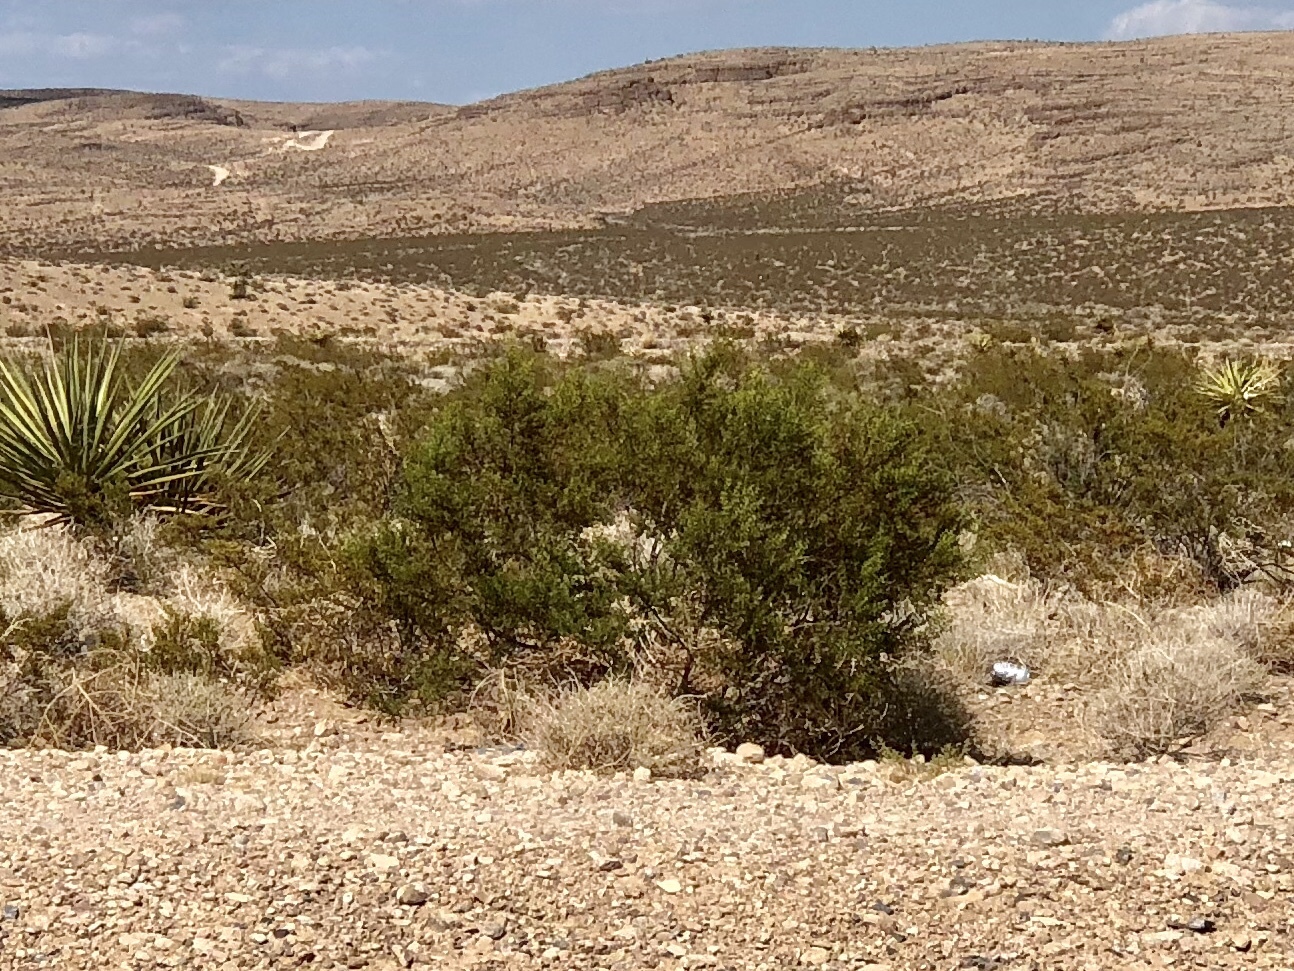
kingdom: Plantae
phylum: Tracheophyta
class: Magnoliopsida
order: Zygophyllales
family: Zygophyllaceae
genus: Larrea
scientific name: Larrea tridentata
